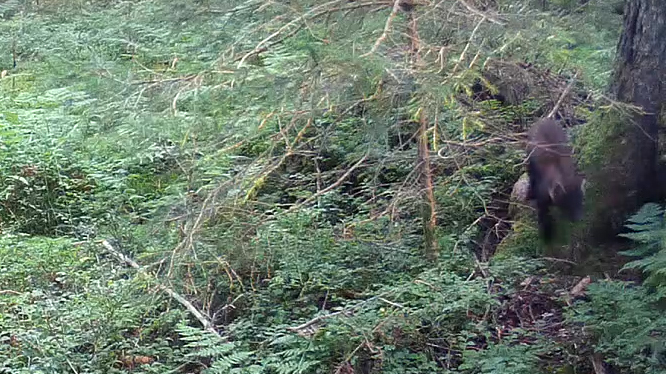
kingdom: Animalia
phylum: Chordata
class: Mammalia
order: Carnivora
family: Mustelidae
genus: Martes
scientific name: Martes martes
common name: European pine marten
